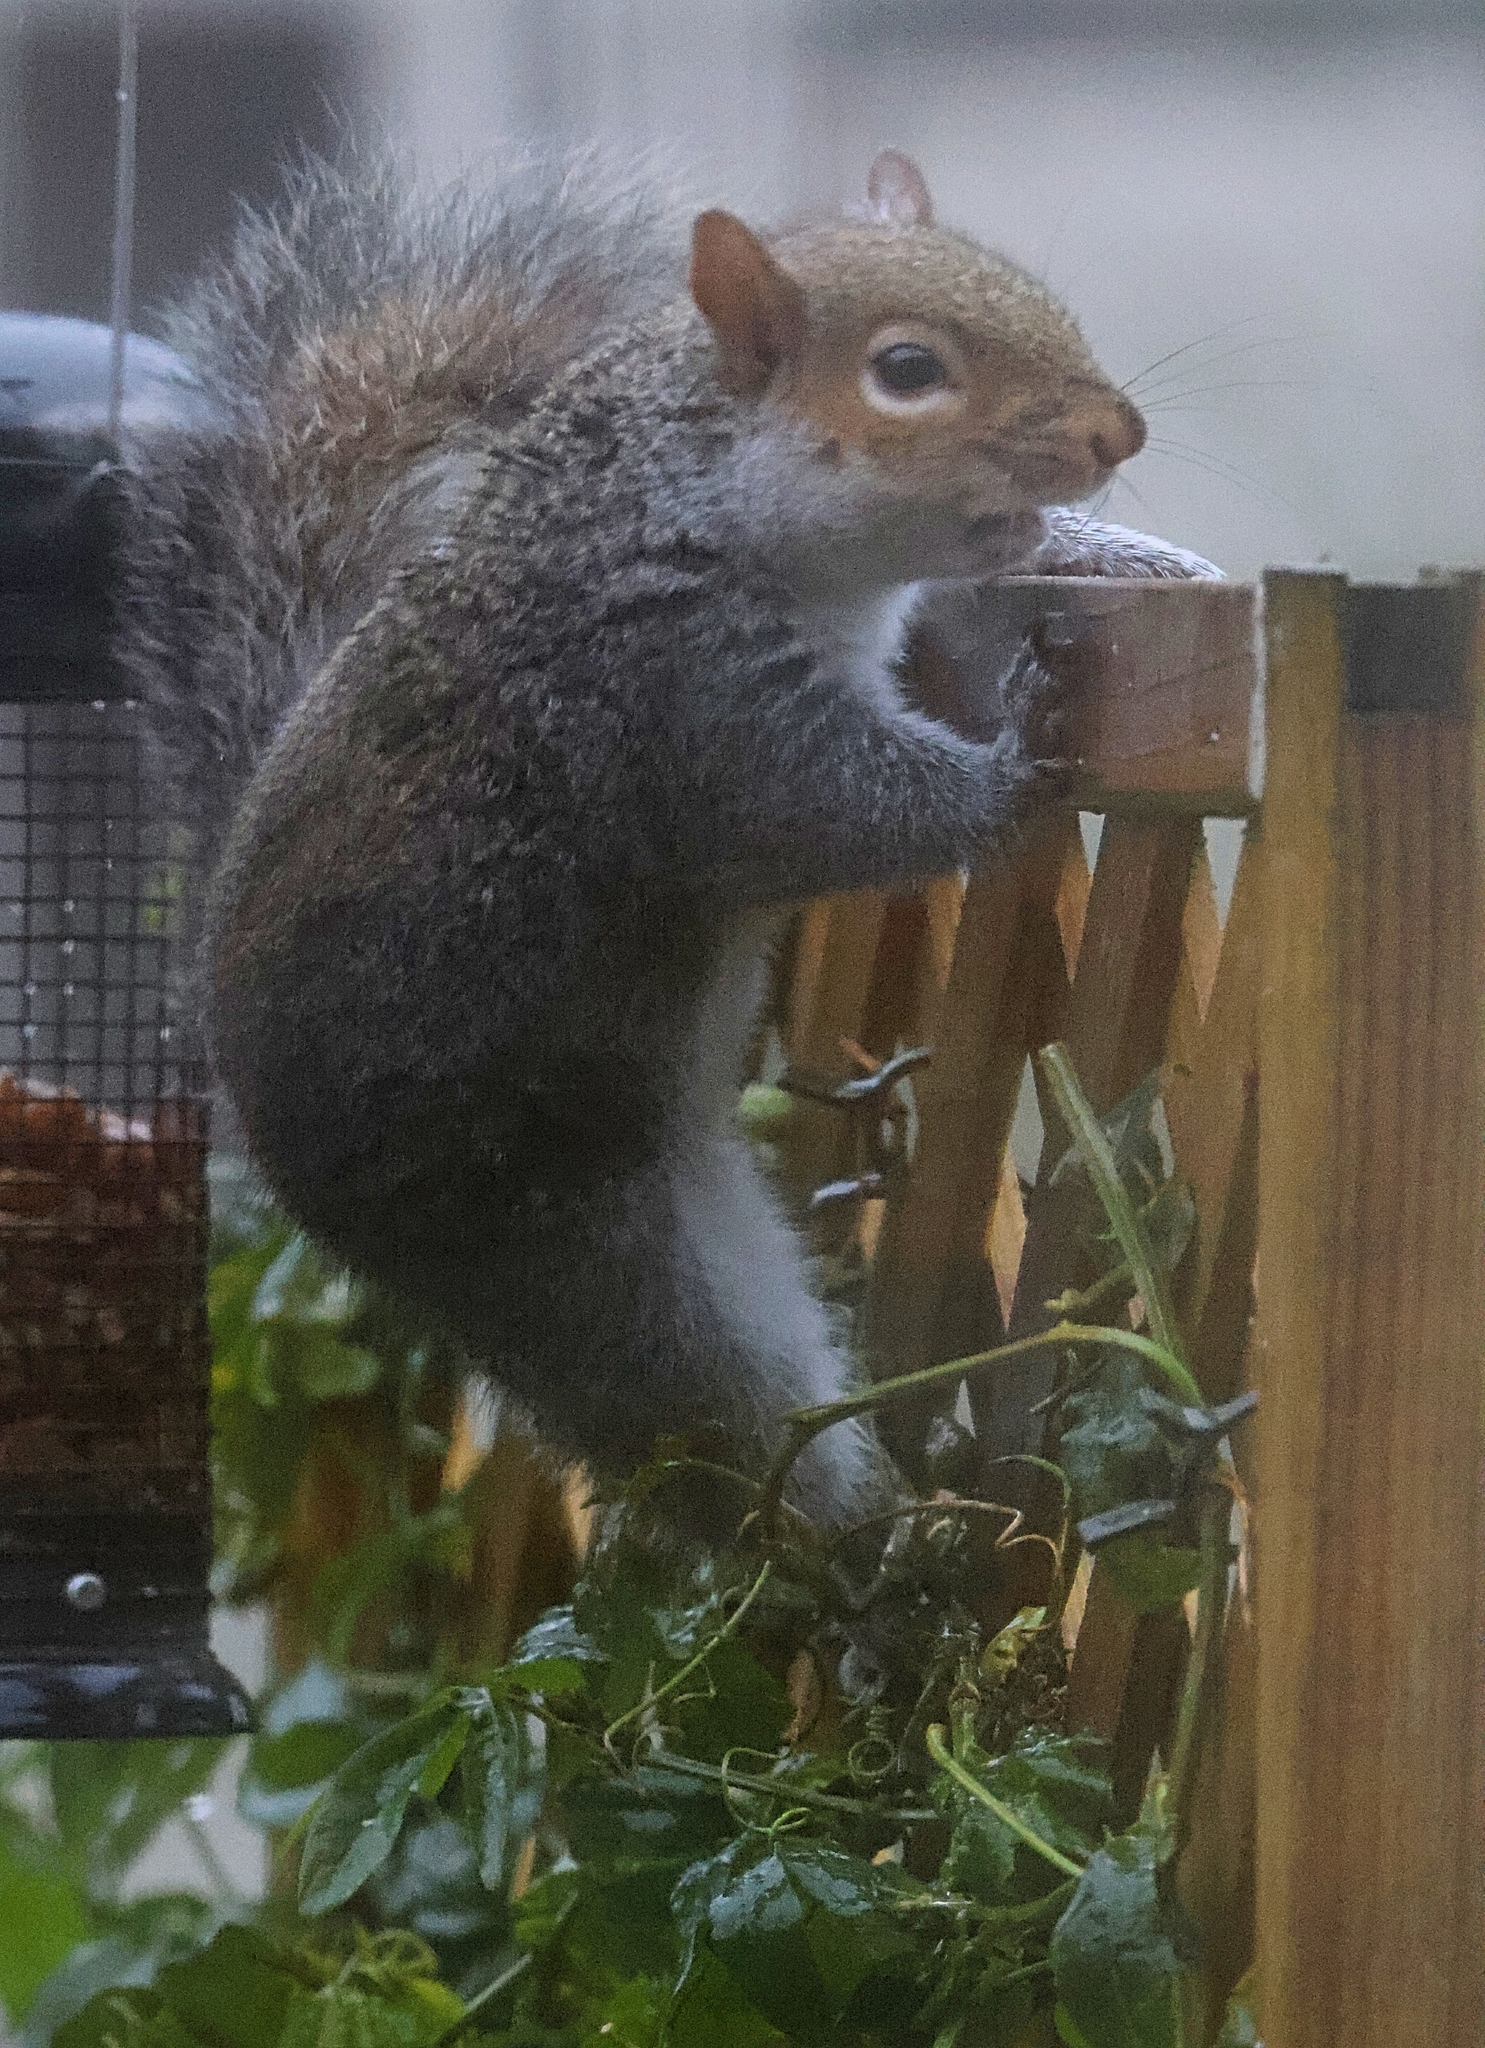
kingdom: Animalia
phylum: Chordata
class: Mammalia
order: Rodentia
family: Sciuridae
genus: Sciurus
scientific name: Sciurus carolinensis
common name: Eastern gray squirrel
